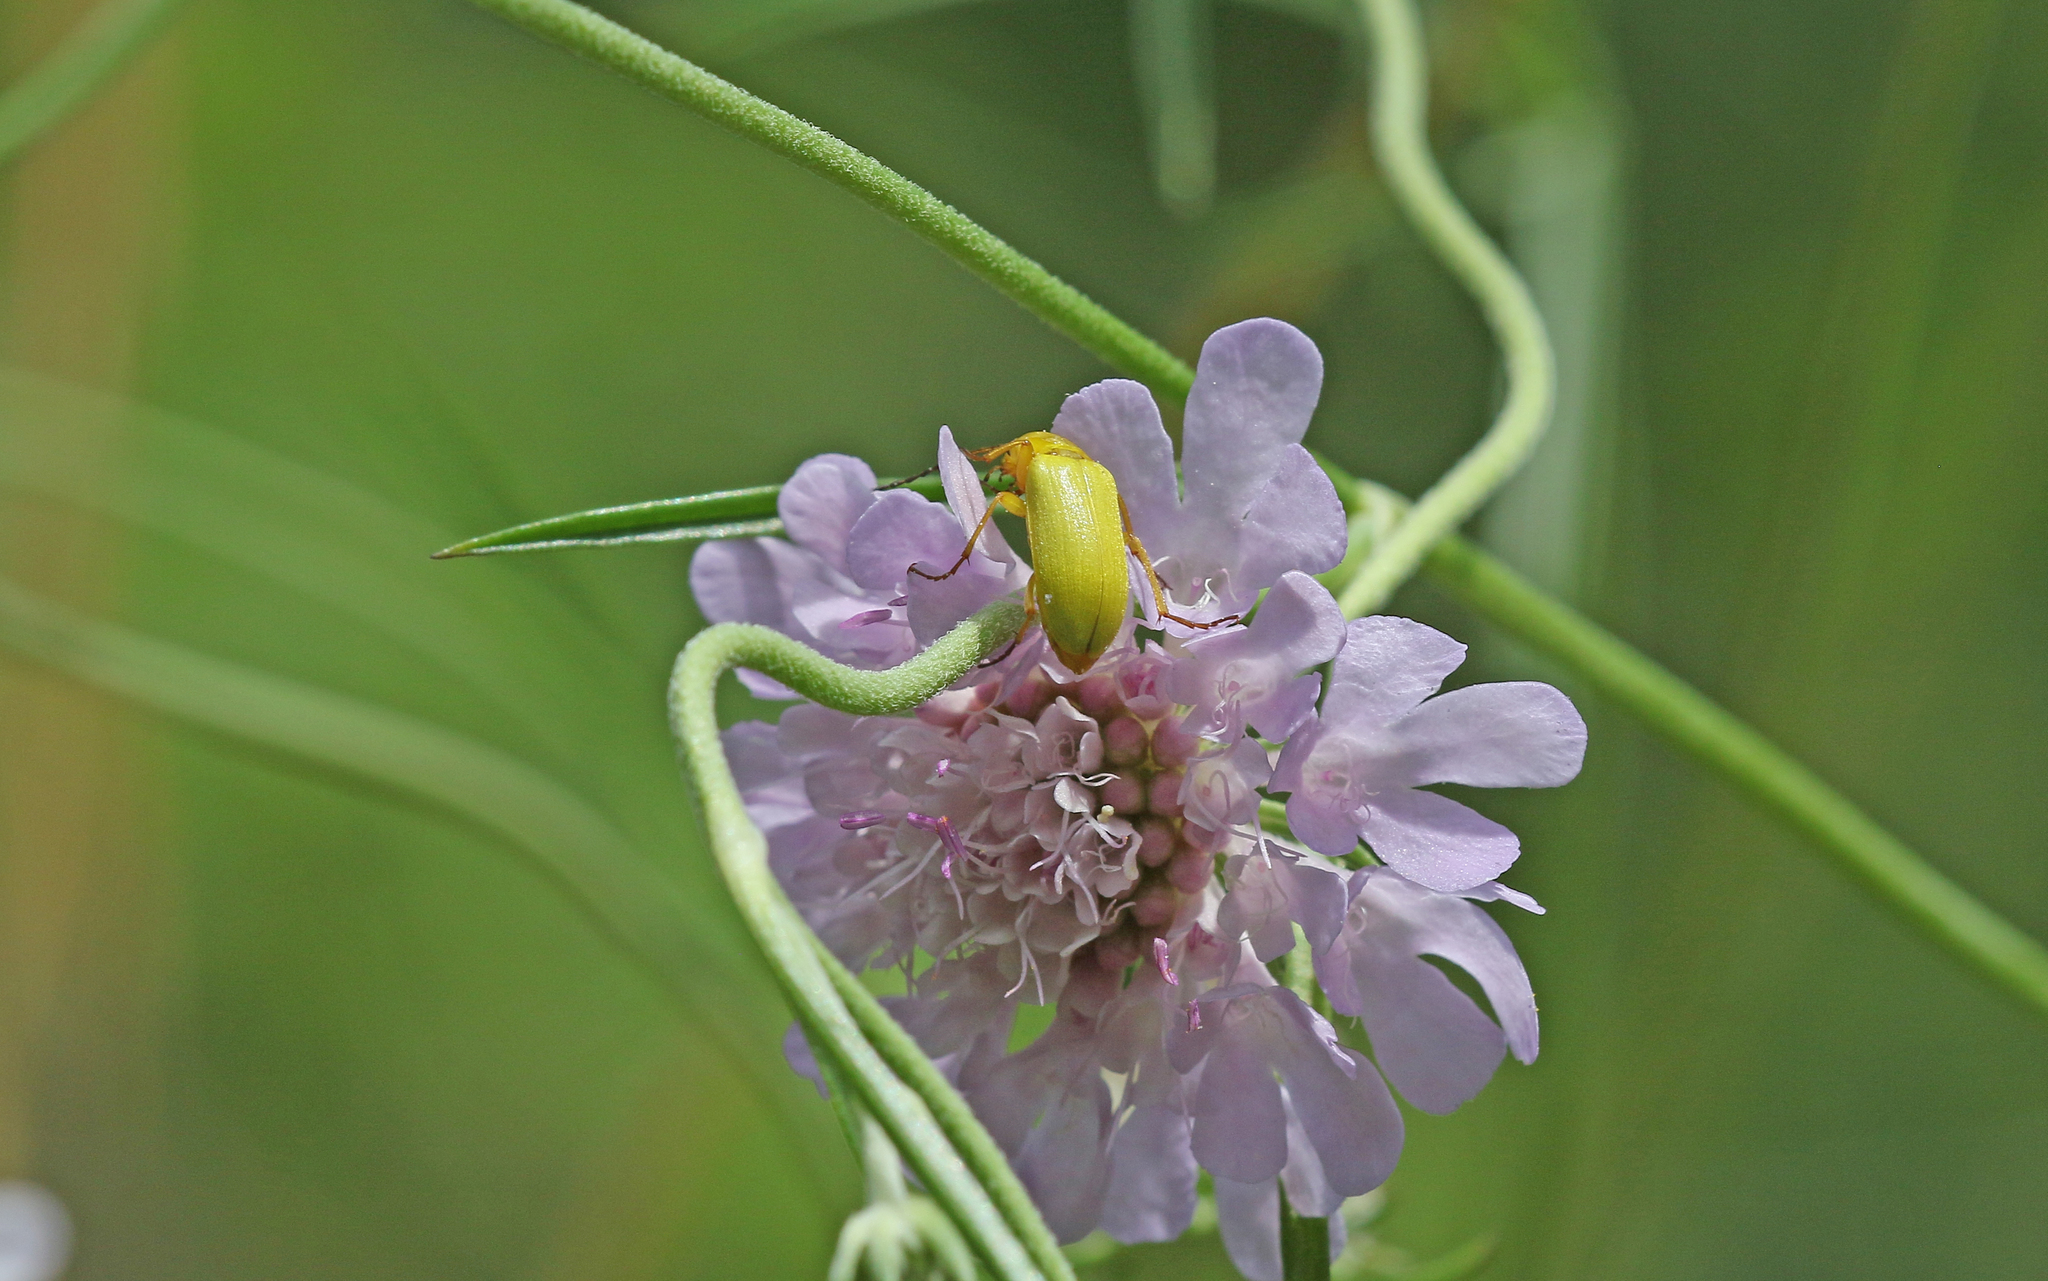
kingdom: Animalia
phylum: Arthropoda
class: Insecta
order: Coleoptera
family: Tenebrionidae
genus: Cteniopus
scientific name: Cteniopus sulphureus
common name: Sulphur beetle
